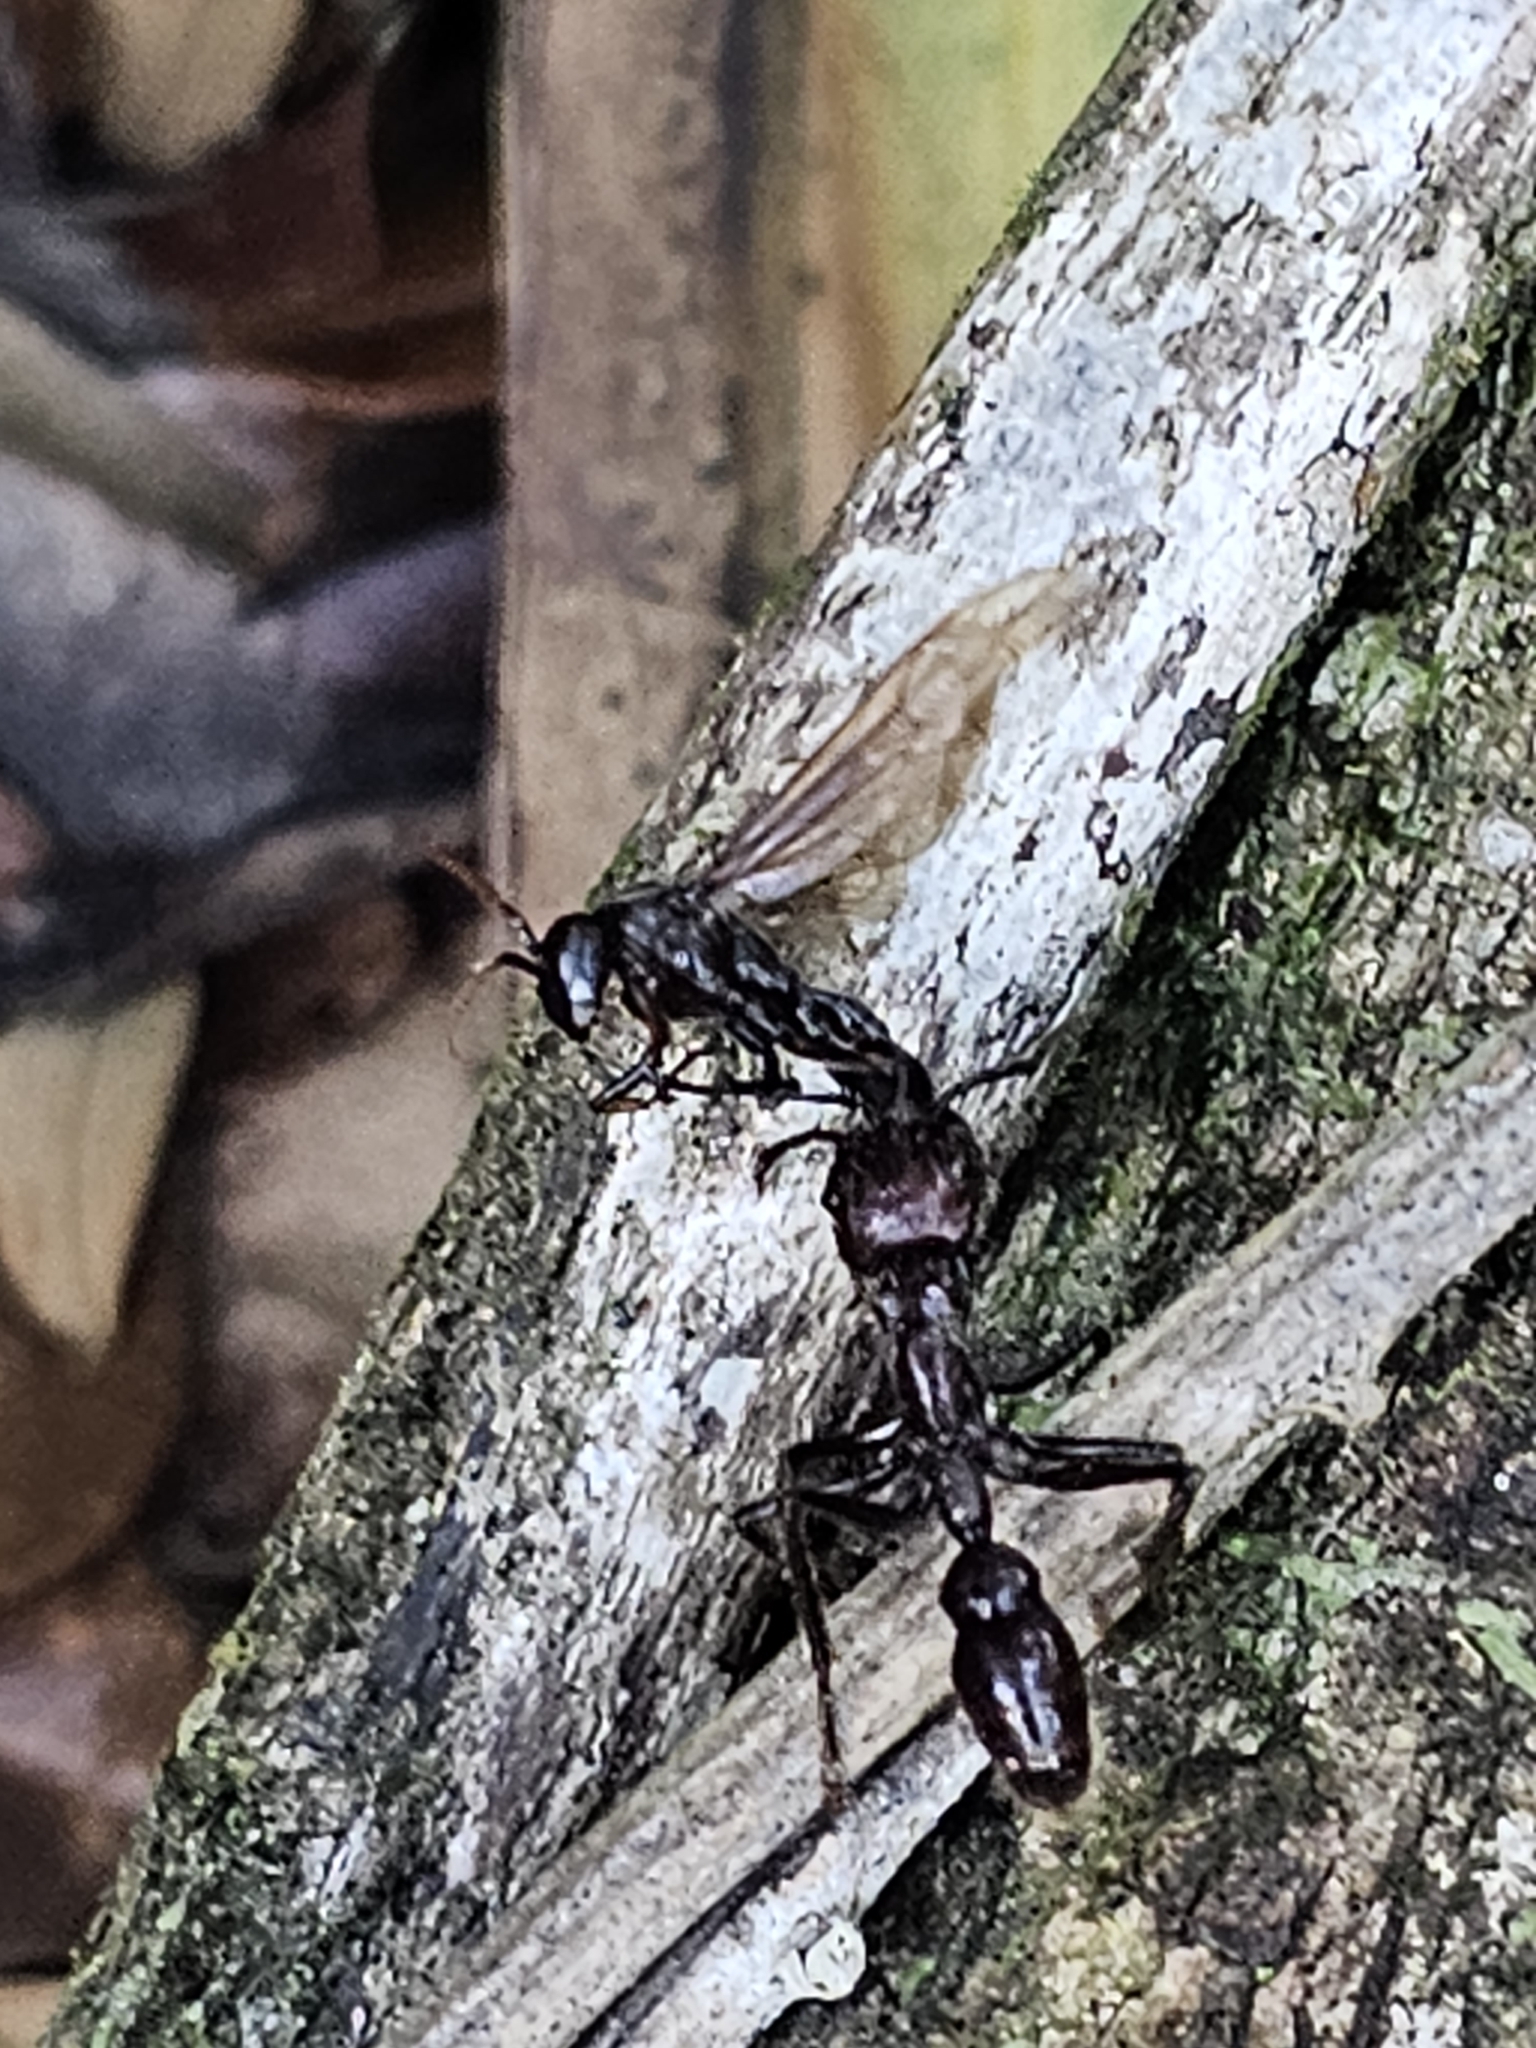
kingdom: Animalia
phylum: Arthropoda
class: Insecta
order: Hymenoptera
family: Formicidae
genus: Paraponera
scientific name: Paraponera clavata
